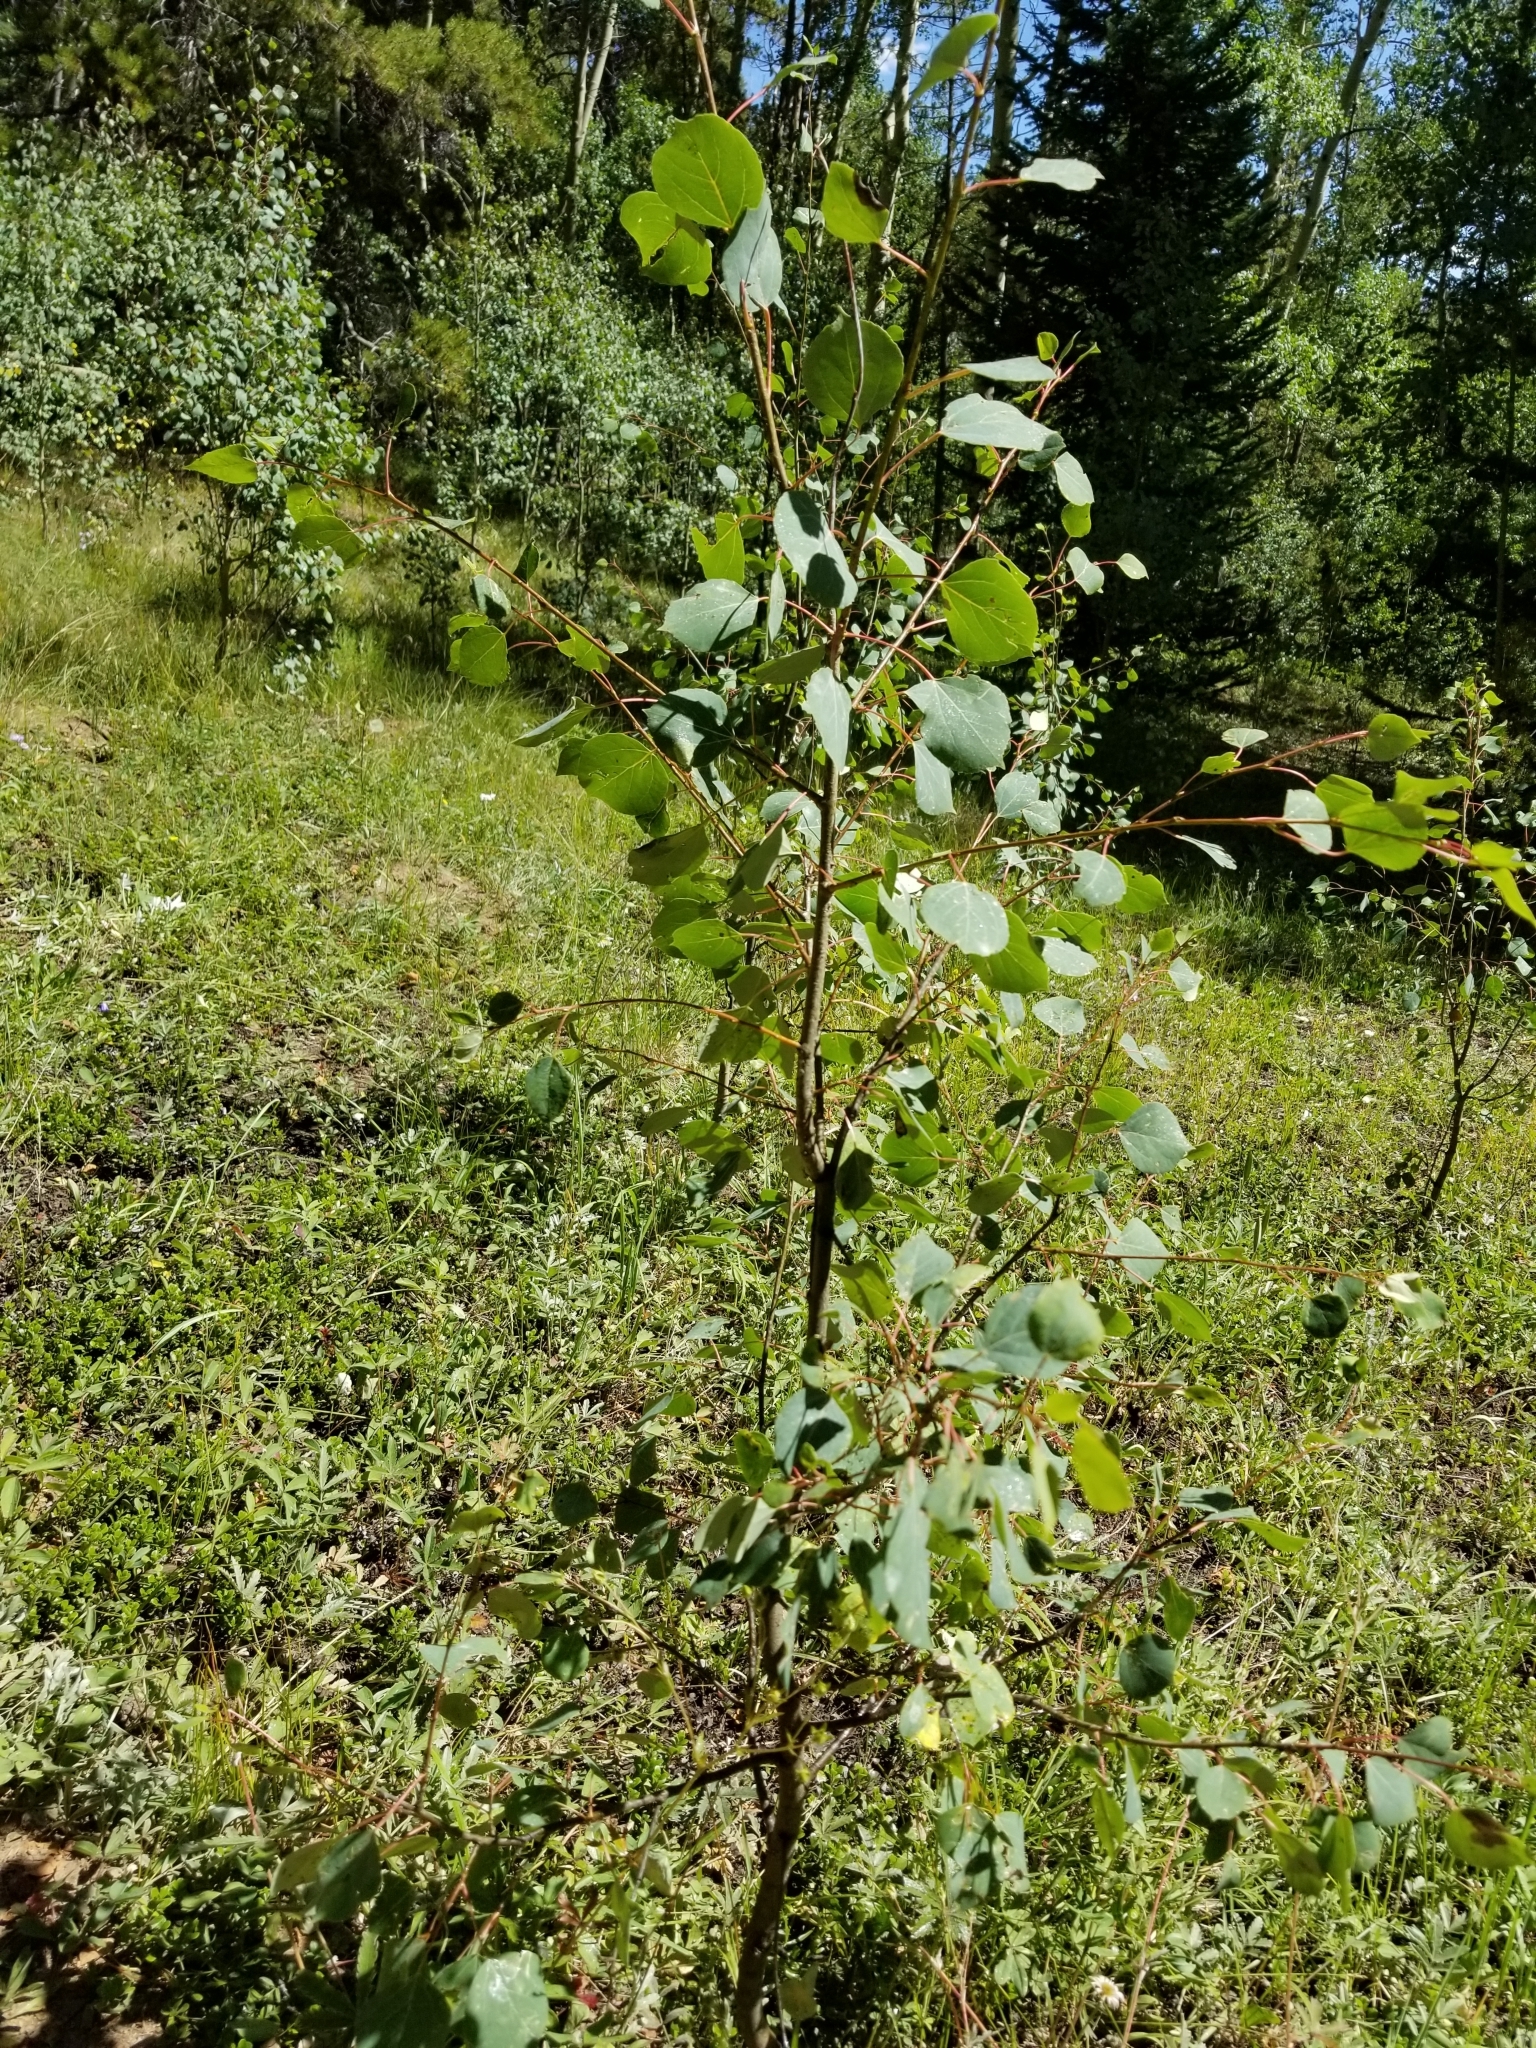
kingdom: Plantae
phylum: Tracheophyta
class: Magnoliopsida
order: Malpighiales
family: Salicaceae
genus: Populus
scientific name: Populus tremuloides
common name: Quaking aspen
